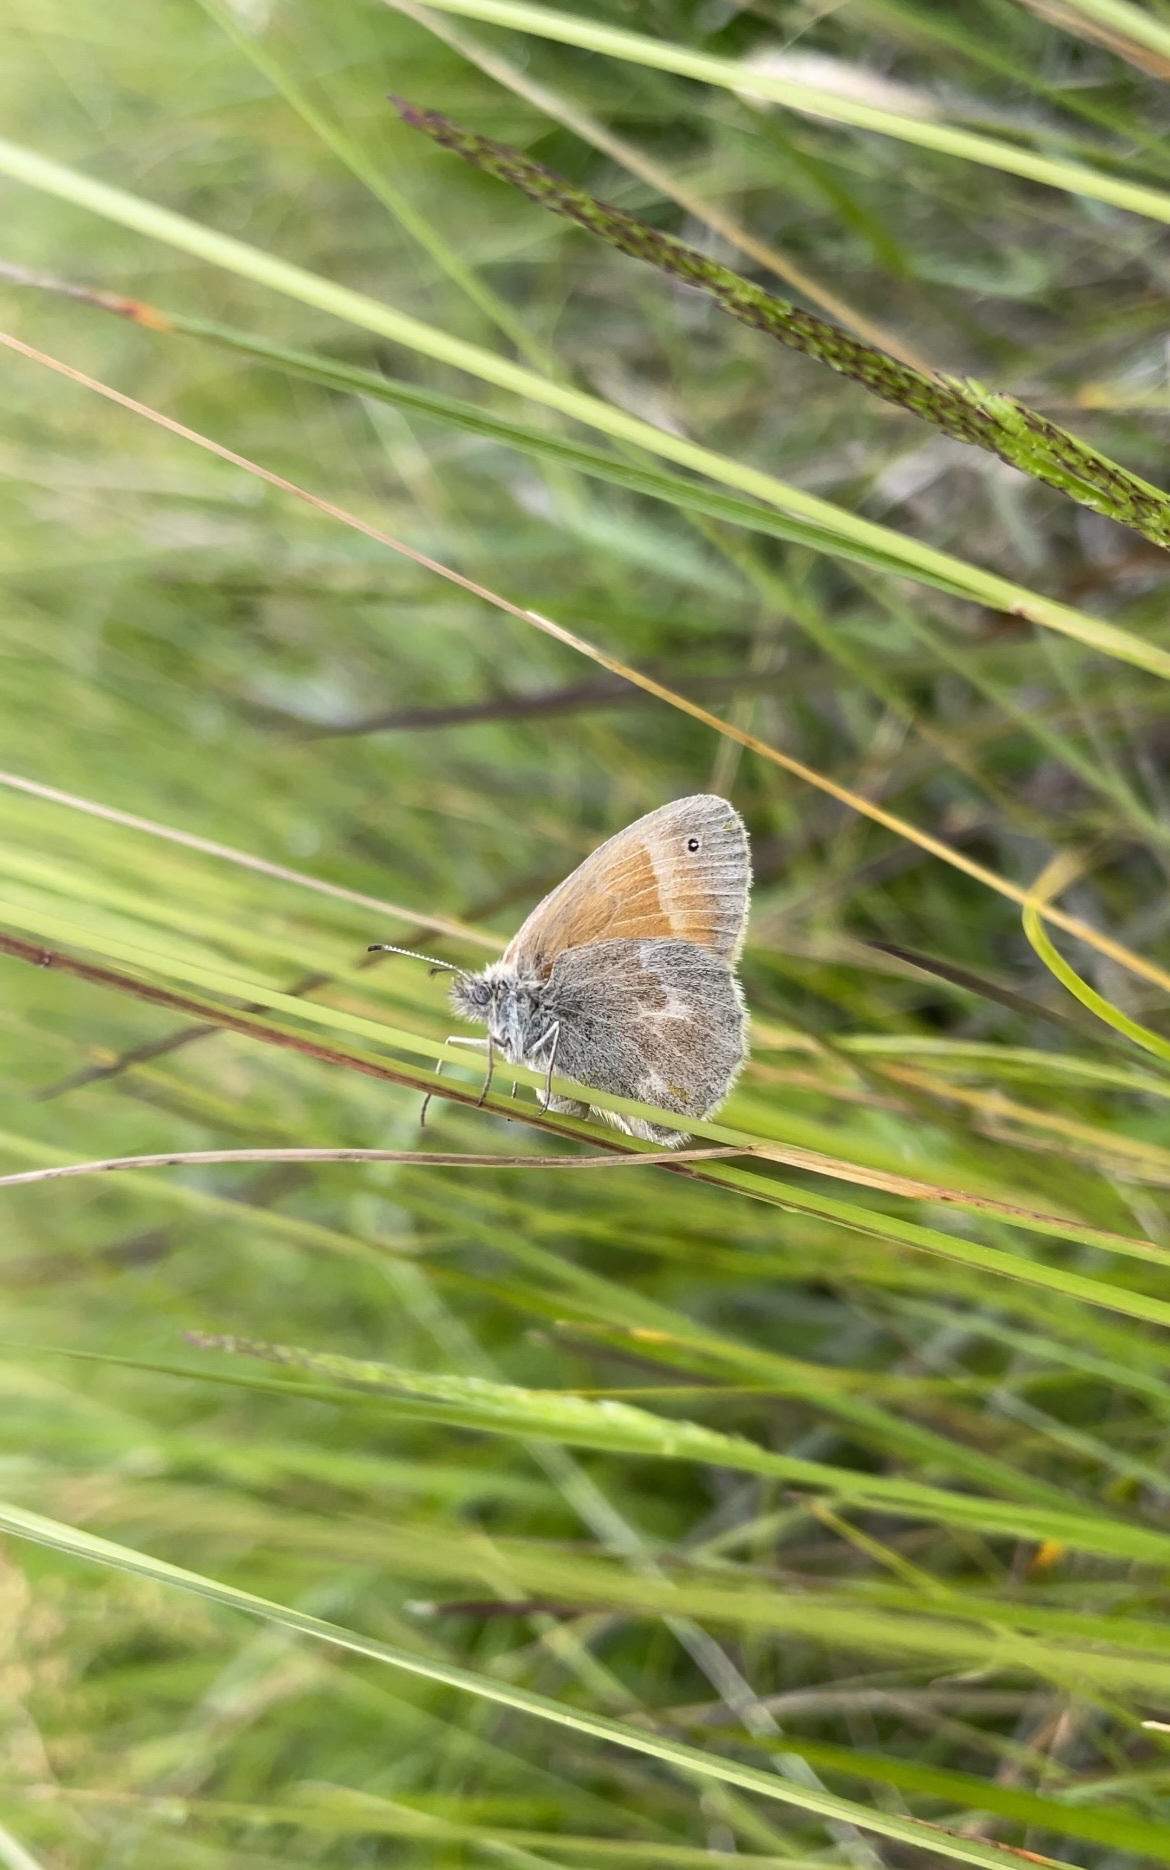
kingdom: Animalia
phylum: Arthropoda
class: Insecta
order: Lepidoptera
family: Nymphalidae
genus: Coenonympha
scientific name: Coenonympha california
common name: Common ringlet
